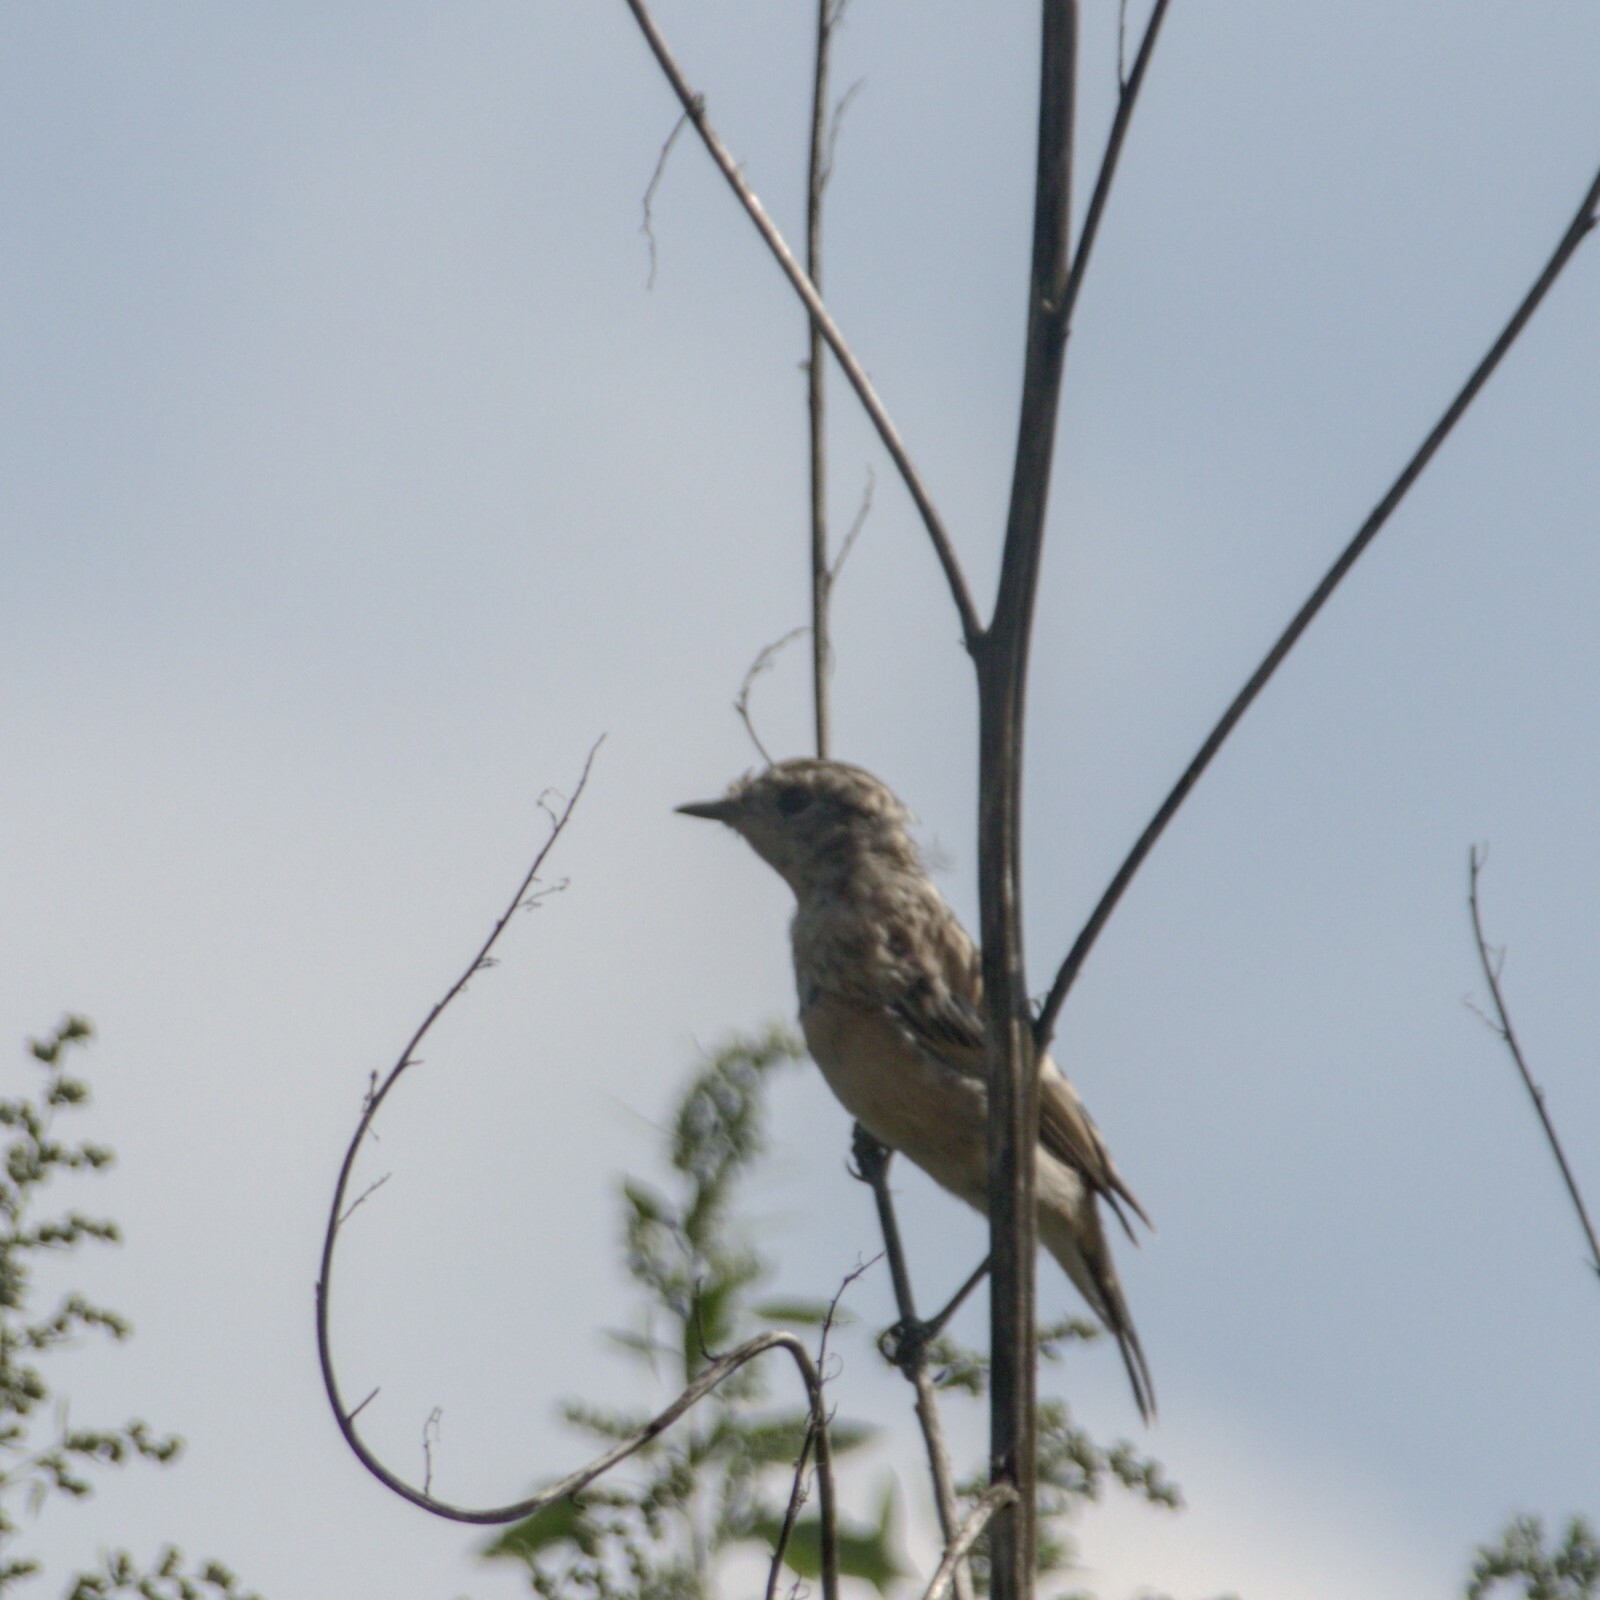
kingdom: Animalia
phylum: Chordata
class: Aves
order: Passeriformes
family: Muscicapidae
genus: Saxicola
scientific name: Saxicola maurus
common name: Siberian stonechat
